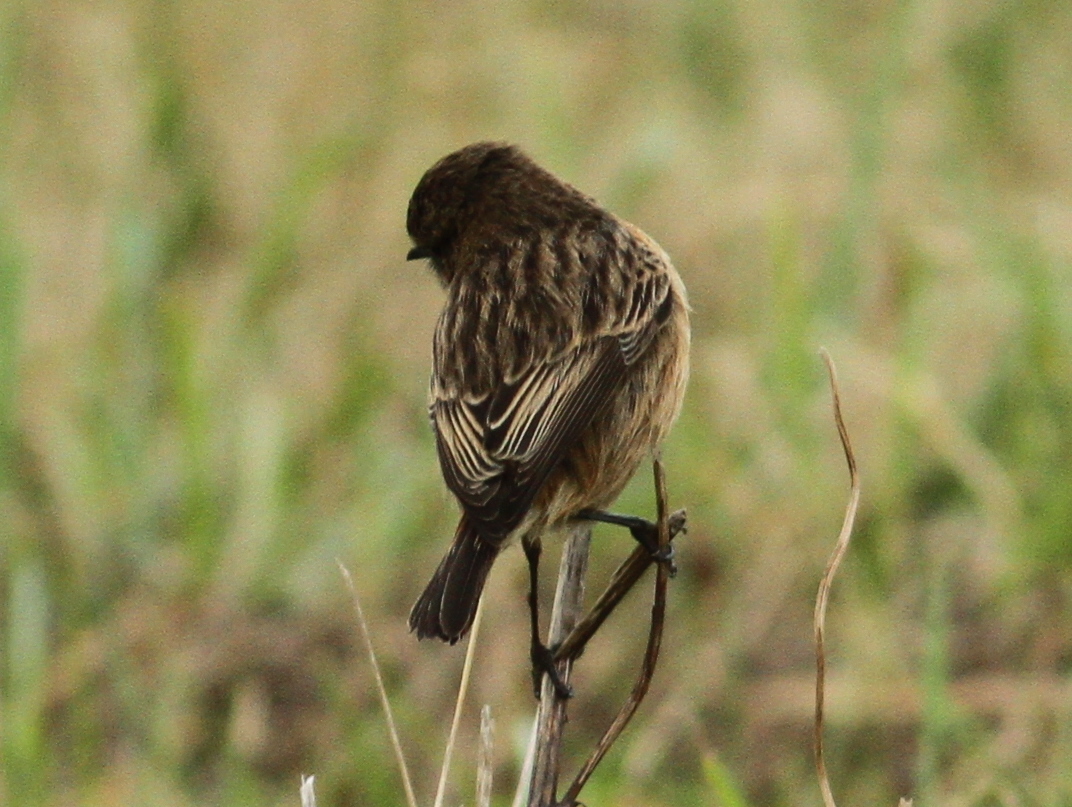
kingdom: Animalia
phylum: Chordata
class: Aves
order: Passeriformes
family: Muscicapidae
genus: Saxicola
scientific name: Saxicola rubicola
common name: European stonechat
